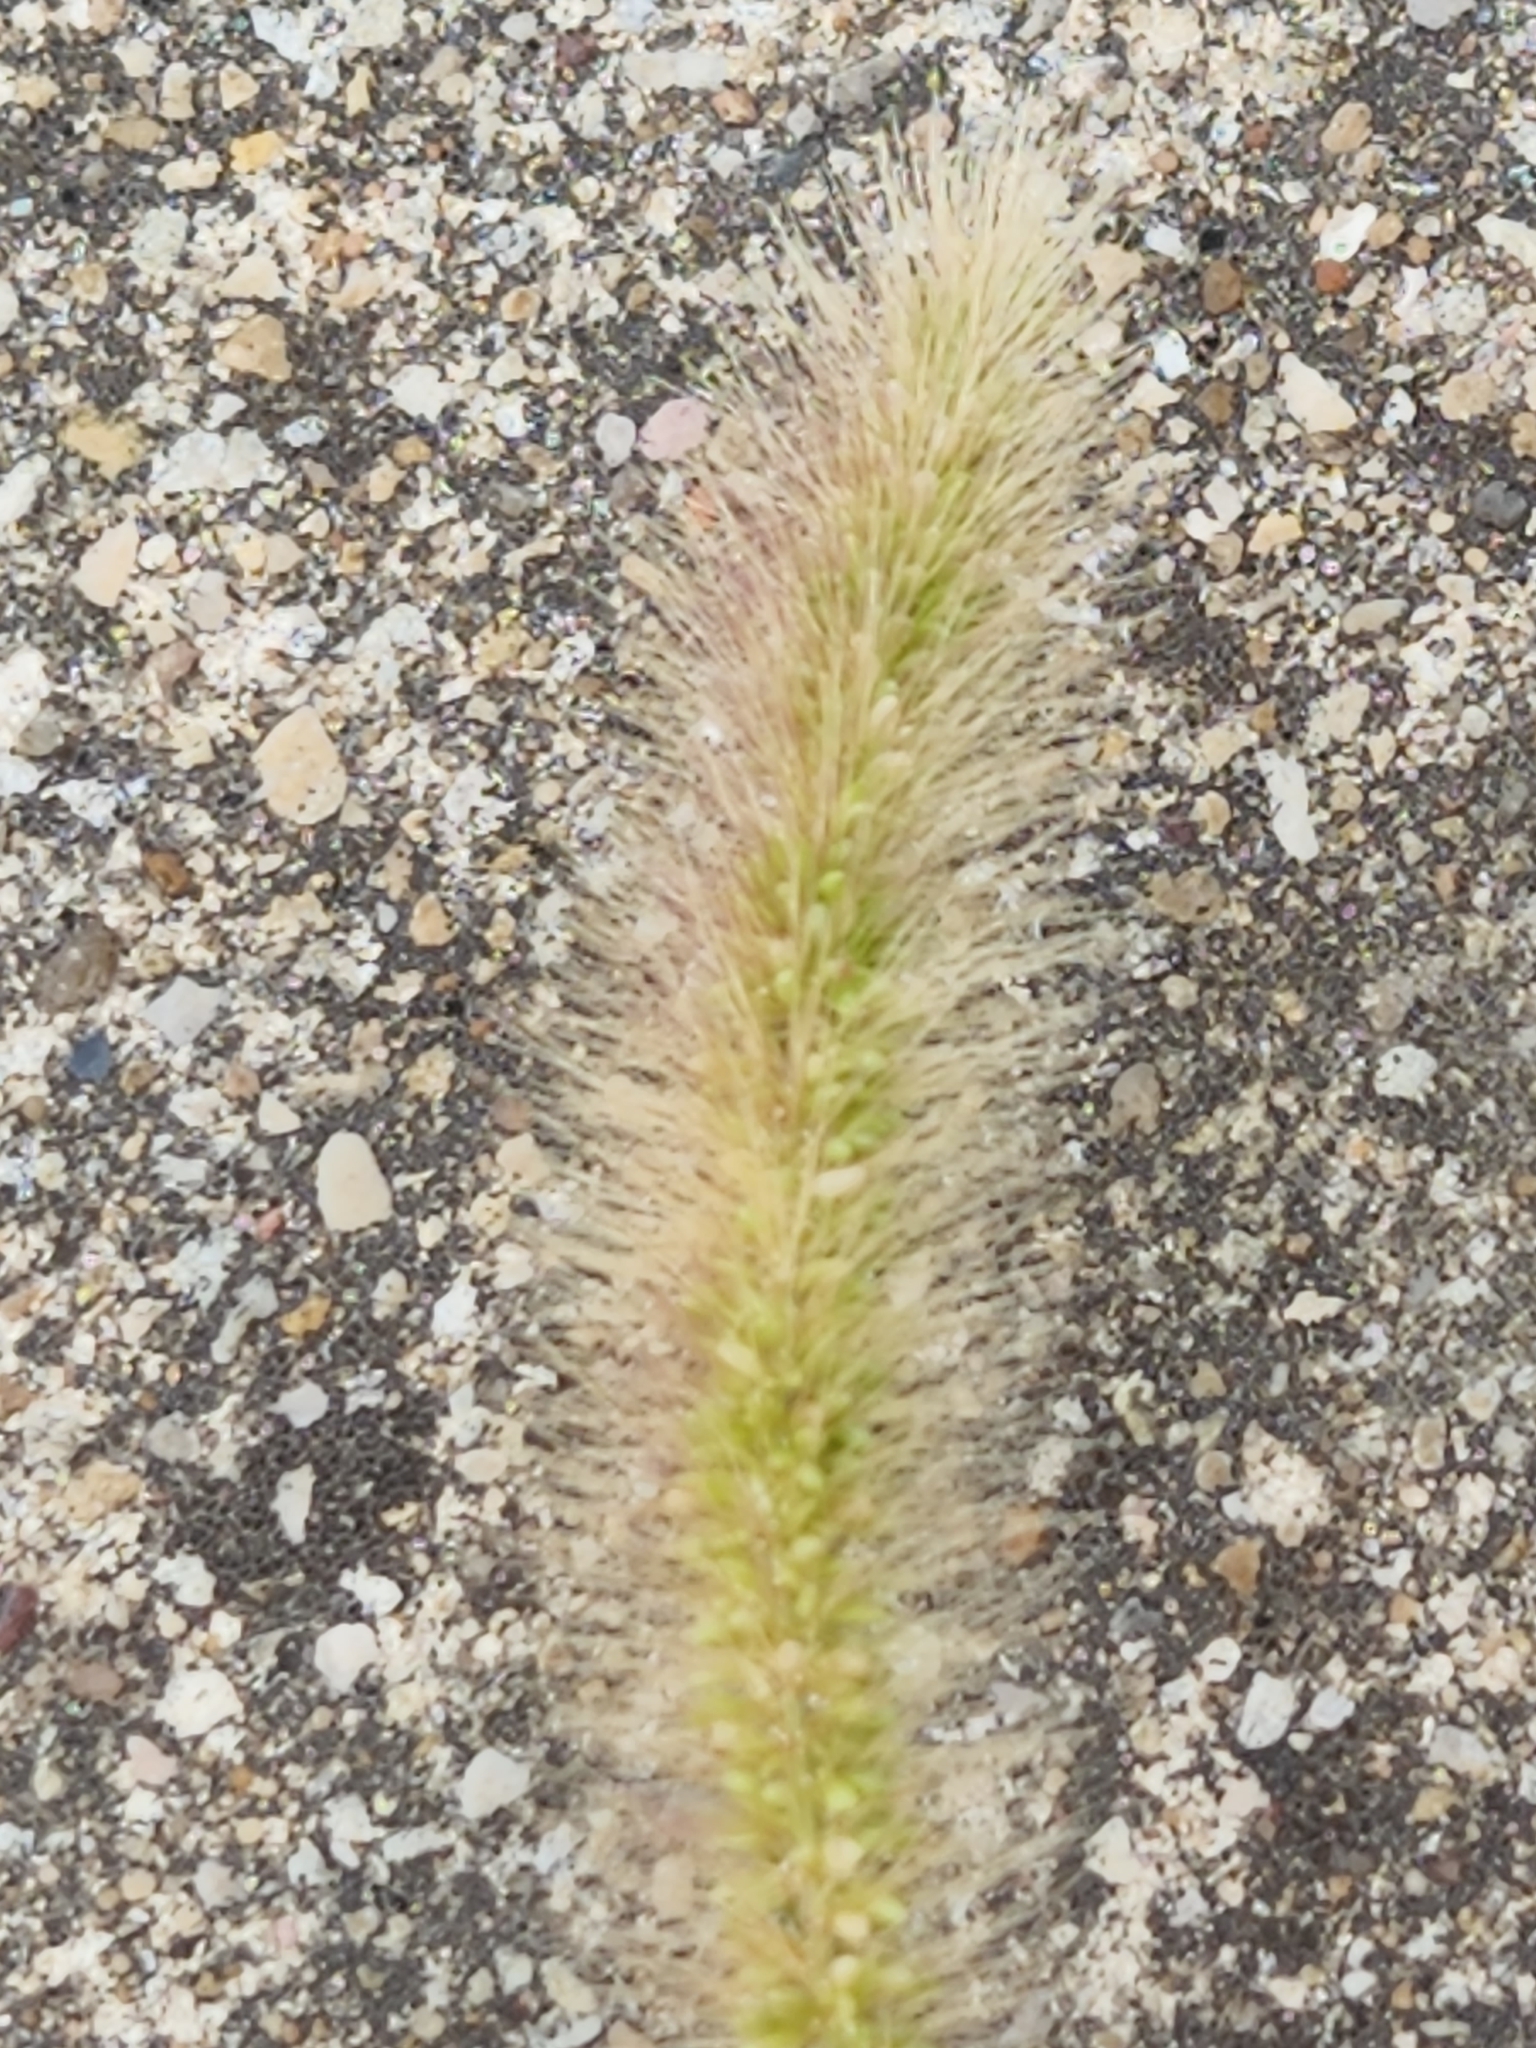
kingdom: Plantae
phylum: Tracheophyta
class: Liliopsida
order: Poales
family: Poaceae
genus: Setaria
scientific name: Setaria viridis
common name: Green bristlegrass
